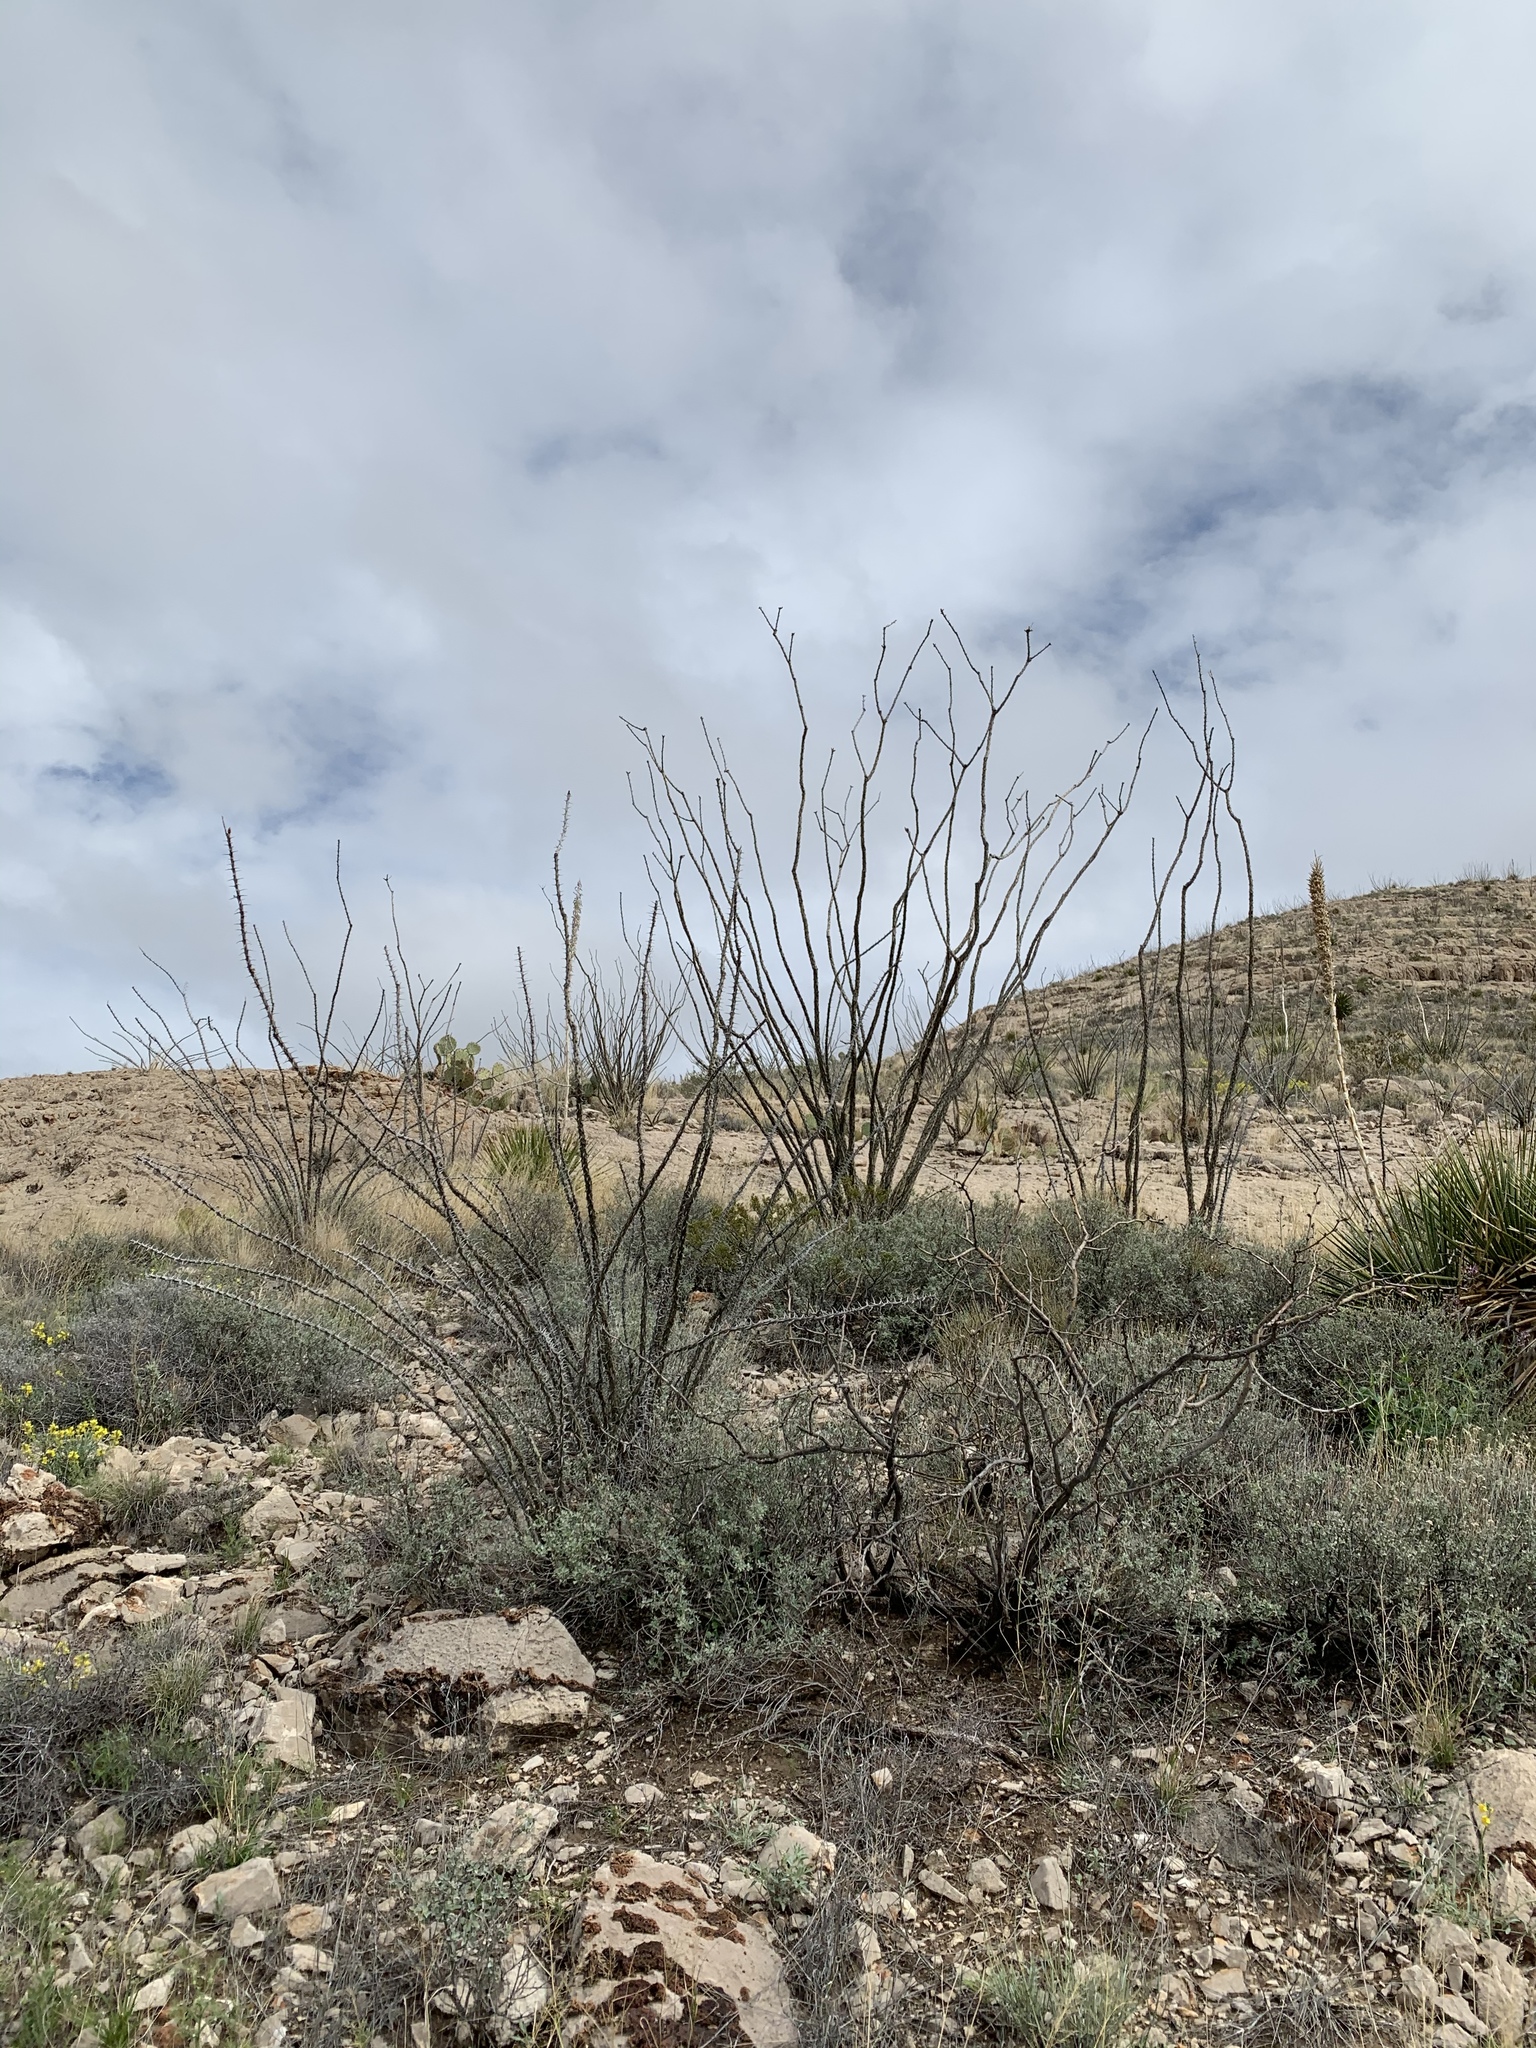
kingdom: Plantae
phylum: Tracheophyta
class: Magnoliopsida
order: Ericales
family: Fouquieriaceae
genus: Fouquieria
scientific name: Fouquieria splendens
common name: Vine-cactus
